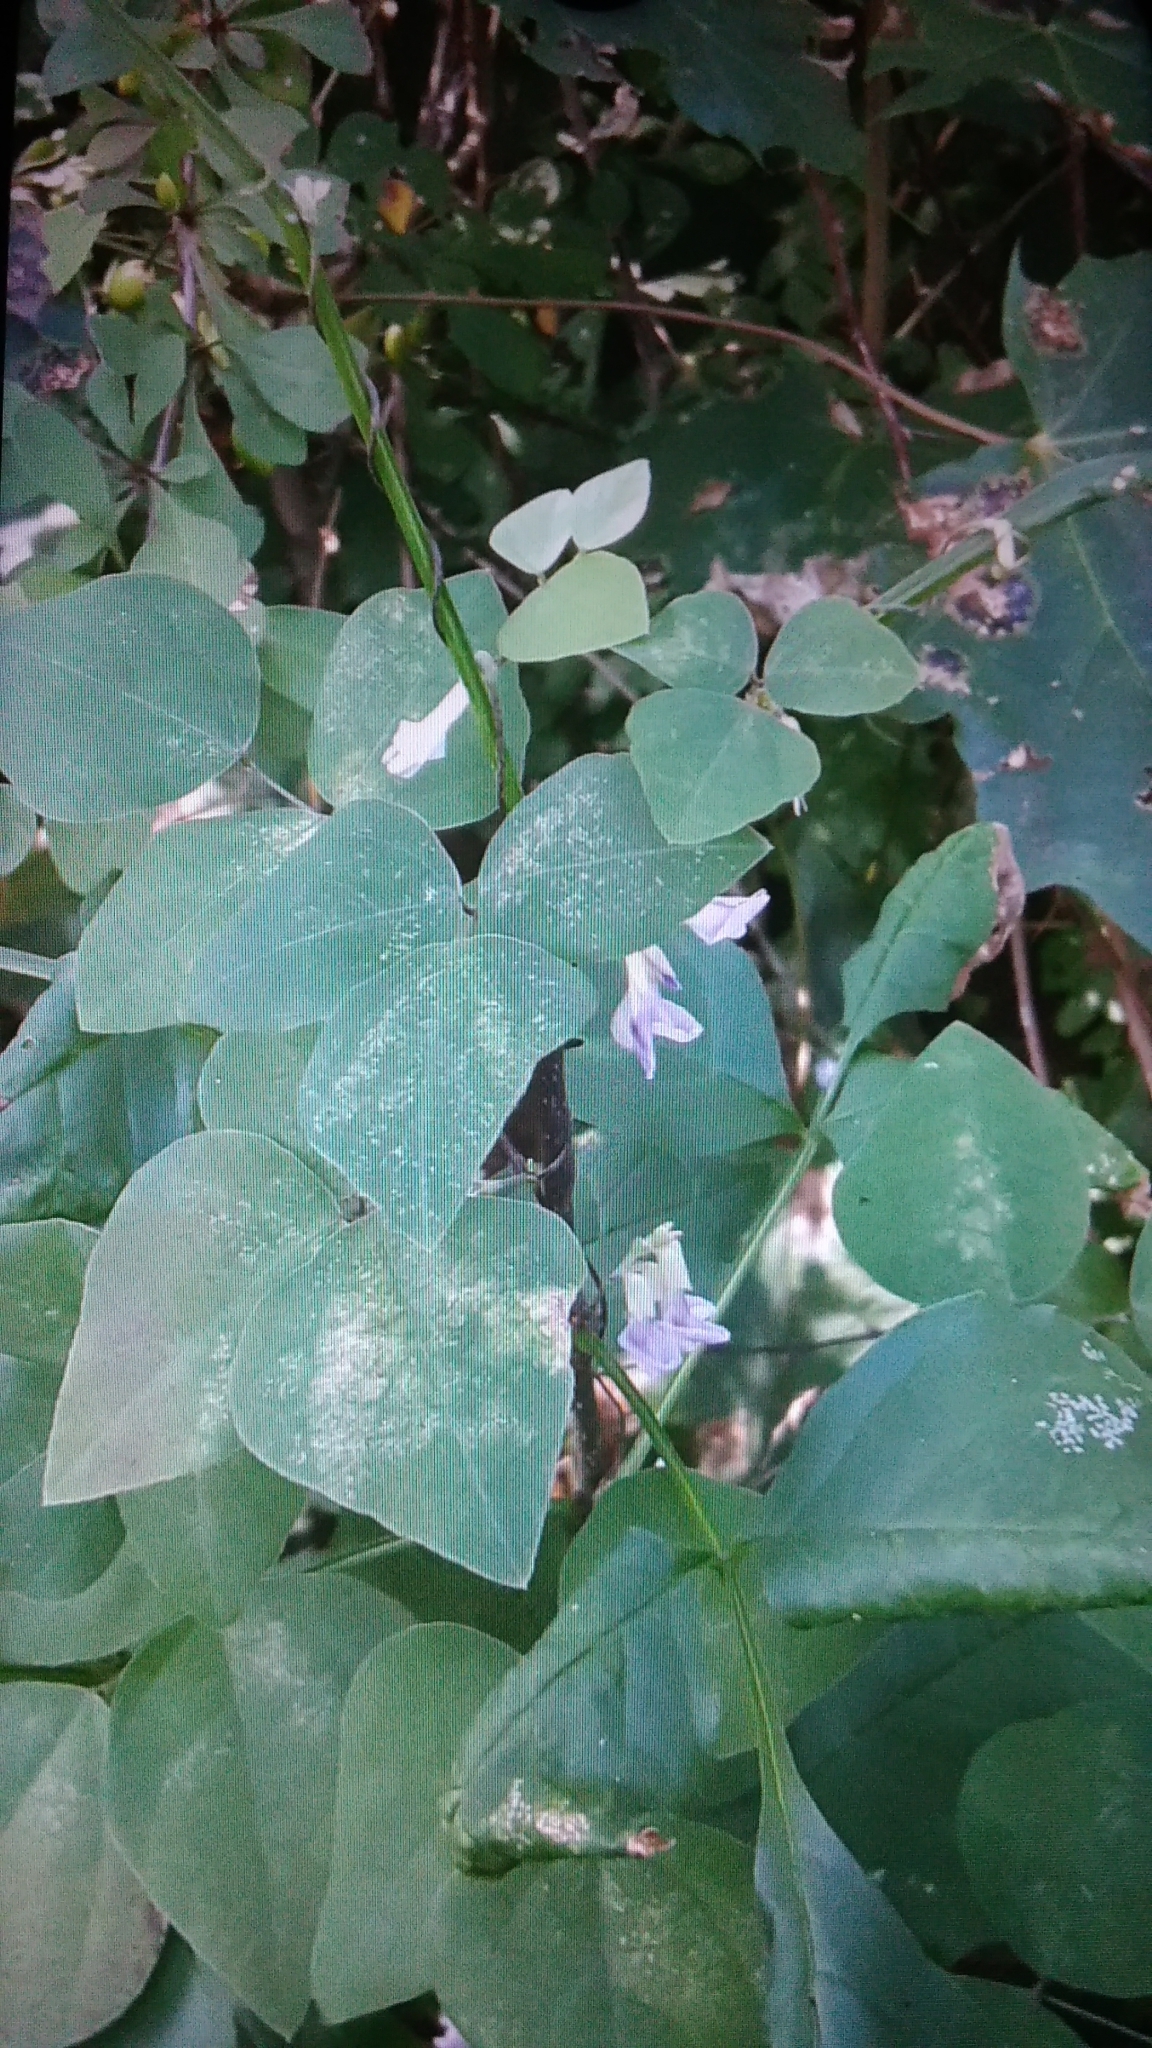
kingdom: Plantae
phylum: Tracheophyta
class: Magnoliopsida
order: Fabales
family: Fabaceae
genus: Amphicarpaea
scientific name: Amphicarpaea bracteata
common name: American hog peanut
